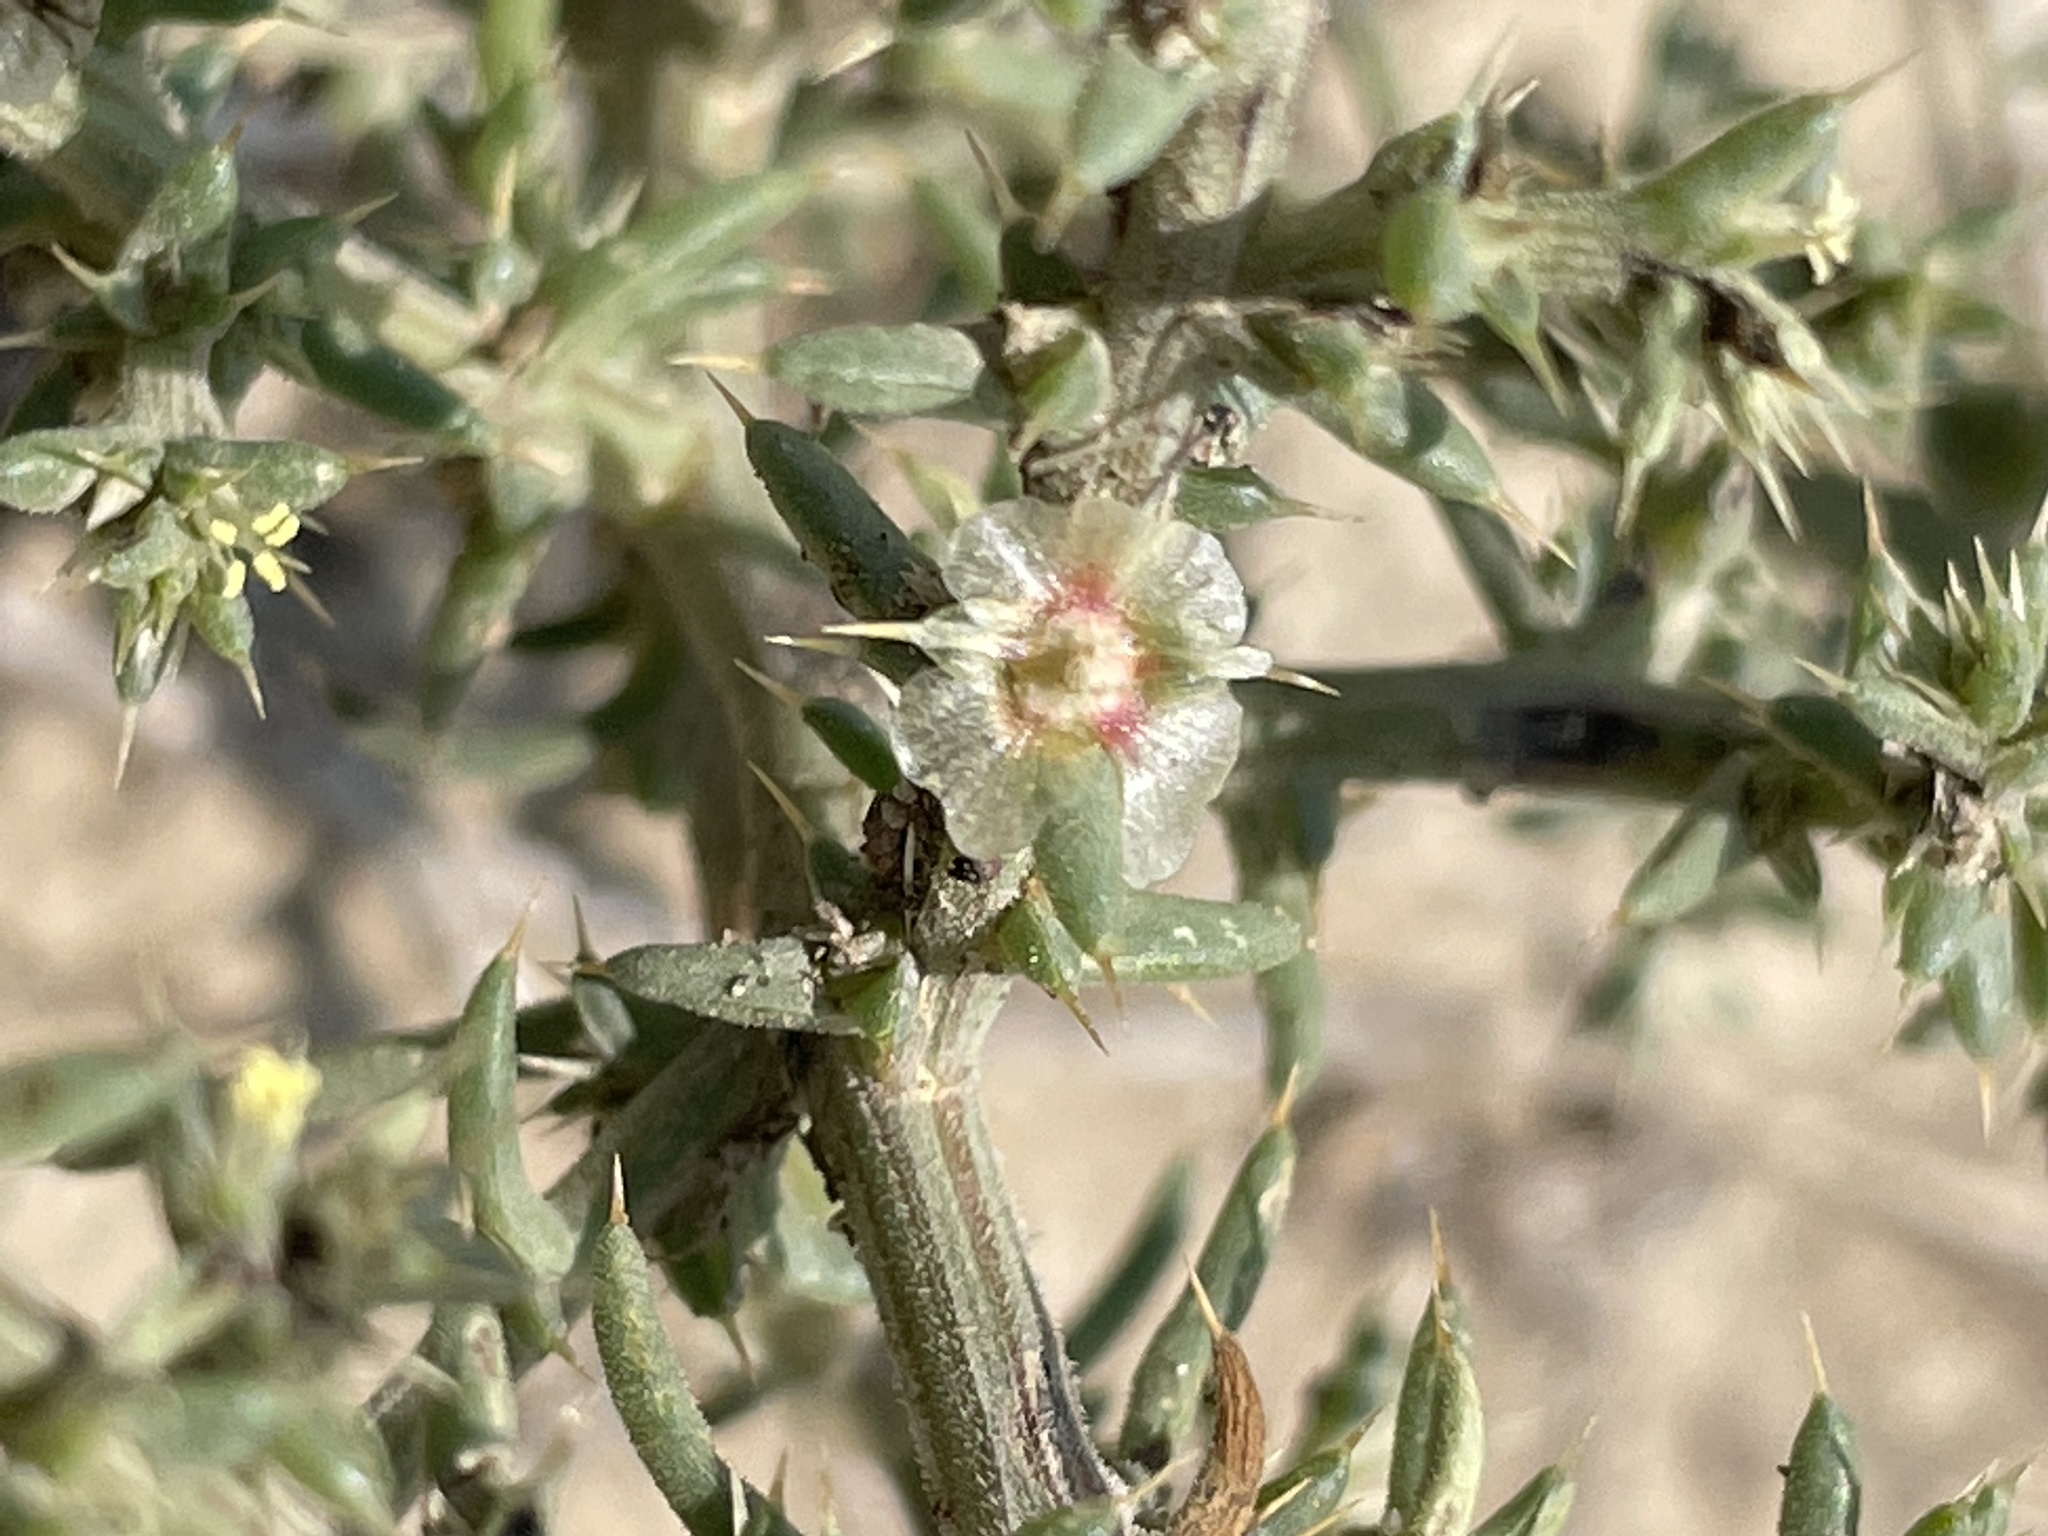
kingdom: Plantae
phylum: Tracheophyta
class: Magnoliopsida
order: Caryophyllales
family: Amaranthaceae
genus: Salsola
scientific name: Salsola tragus
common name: Prickly russian thistle
